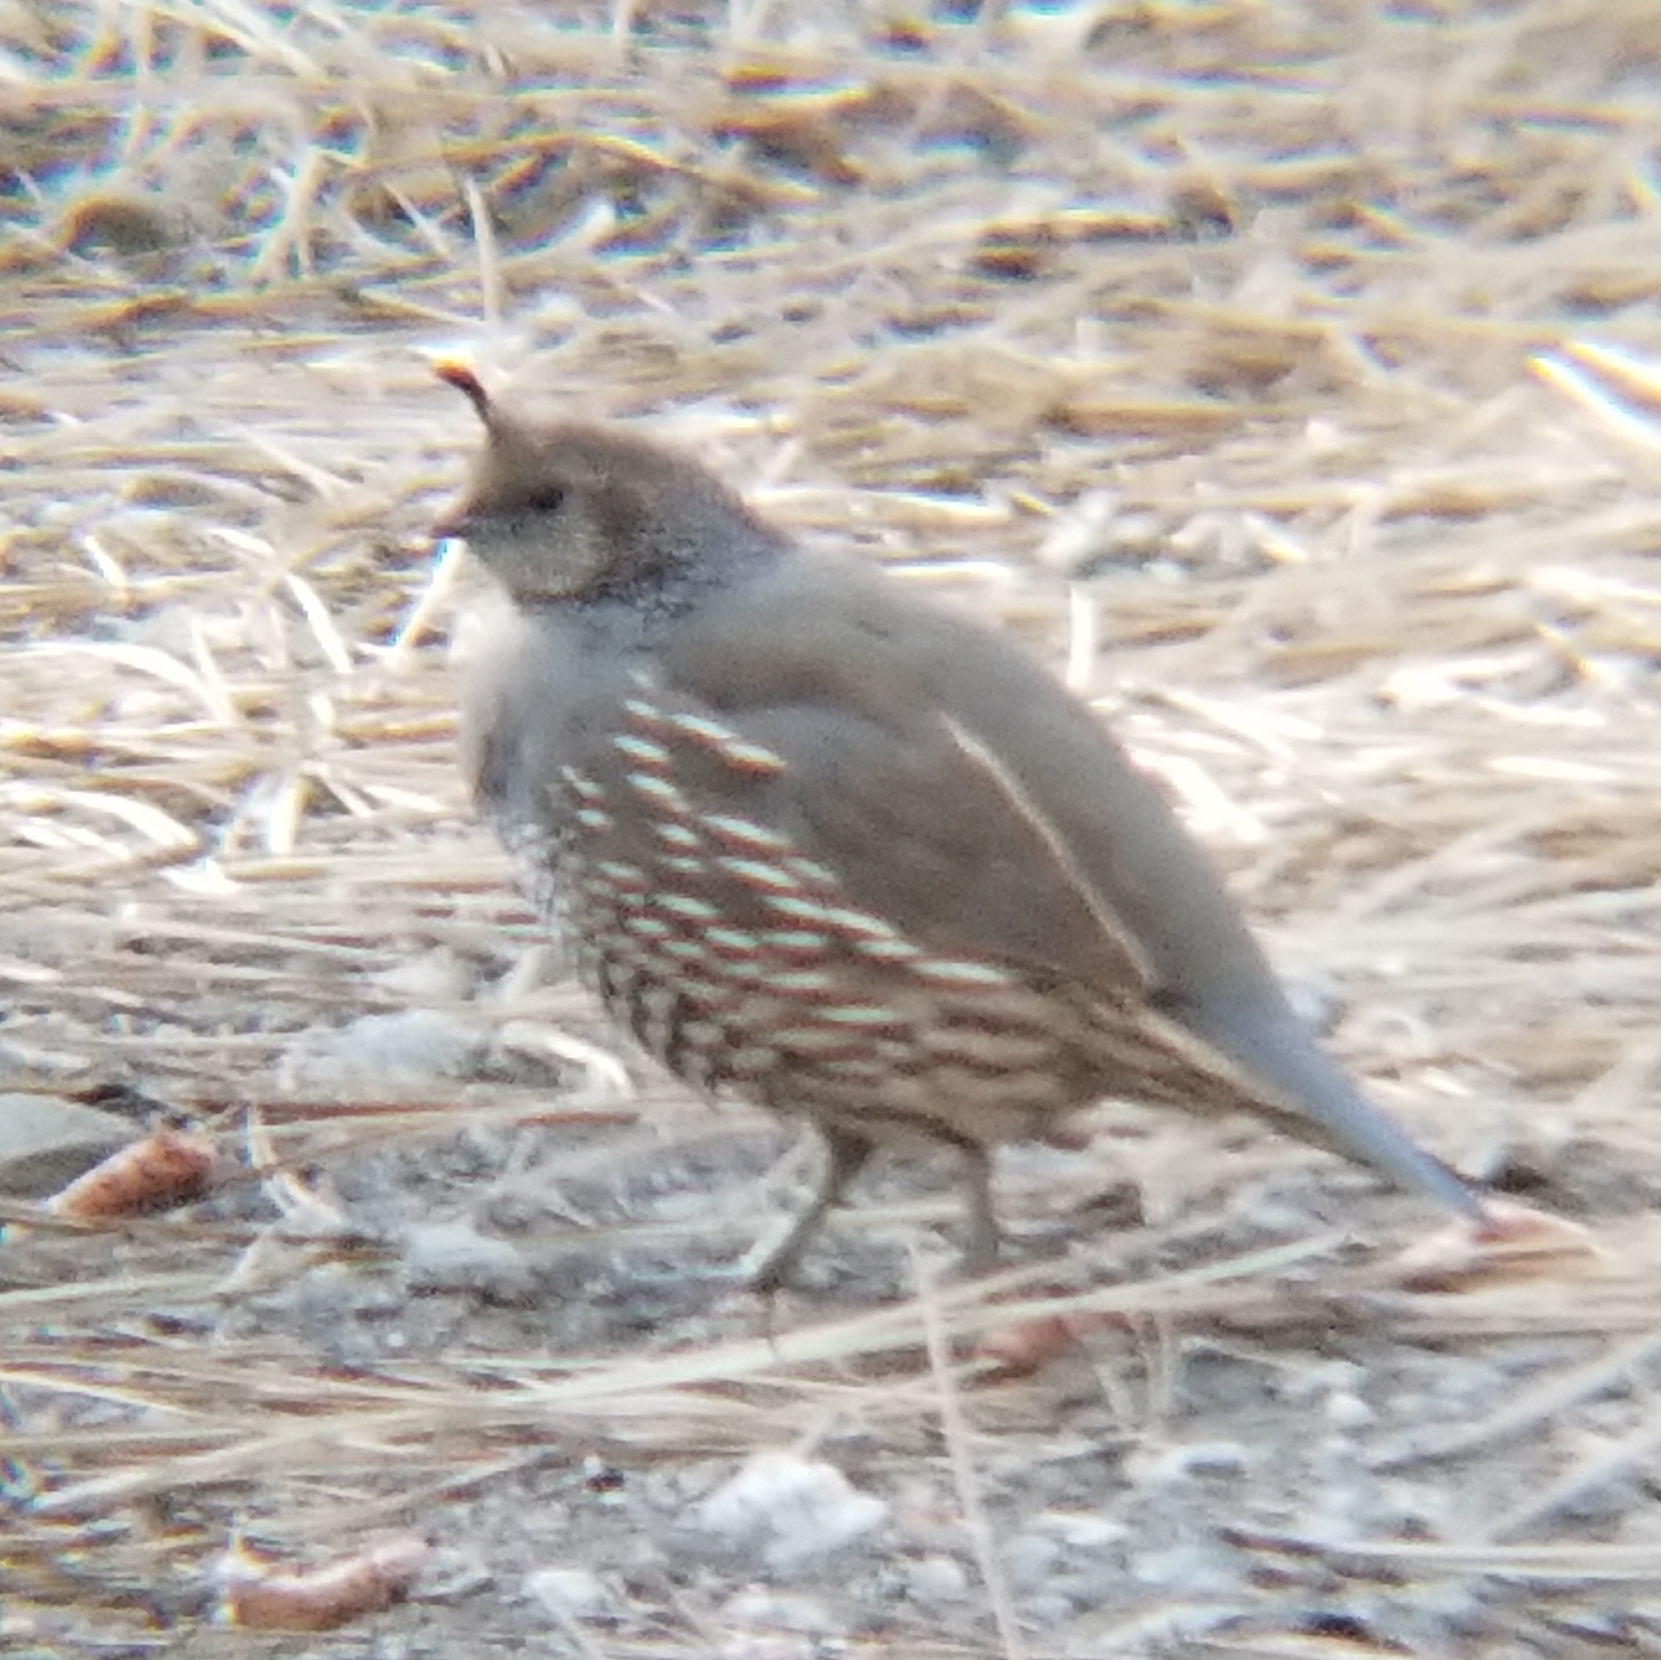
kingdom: Animalia
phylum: Chordata
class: Aves
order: Galliformes
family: Odontophoridae
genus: Callipepla
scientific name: Callipepla californica
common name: California quail
